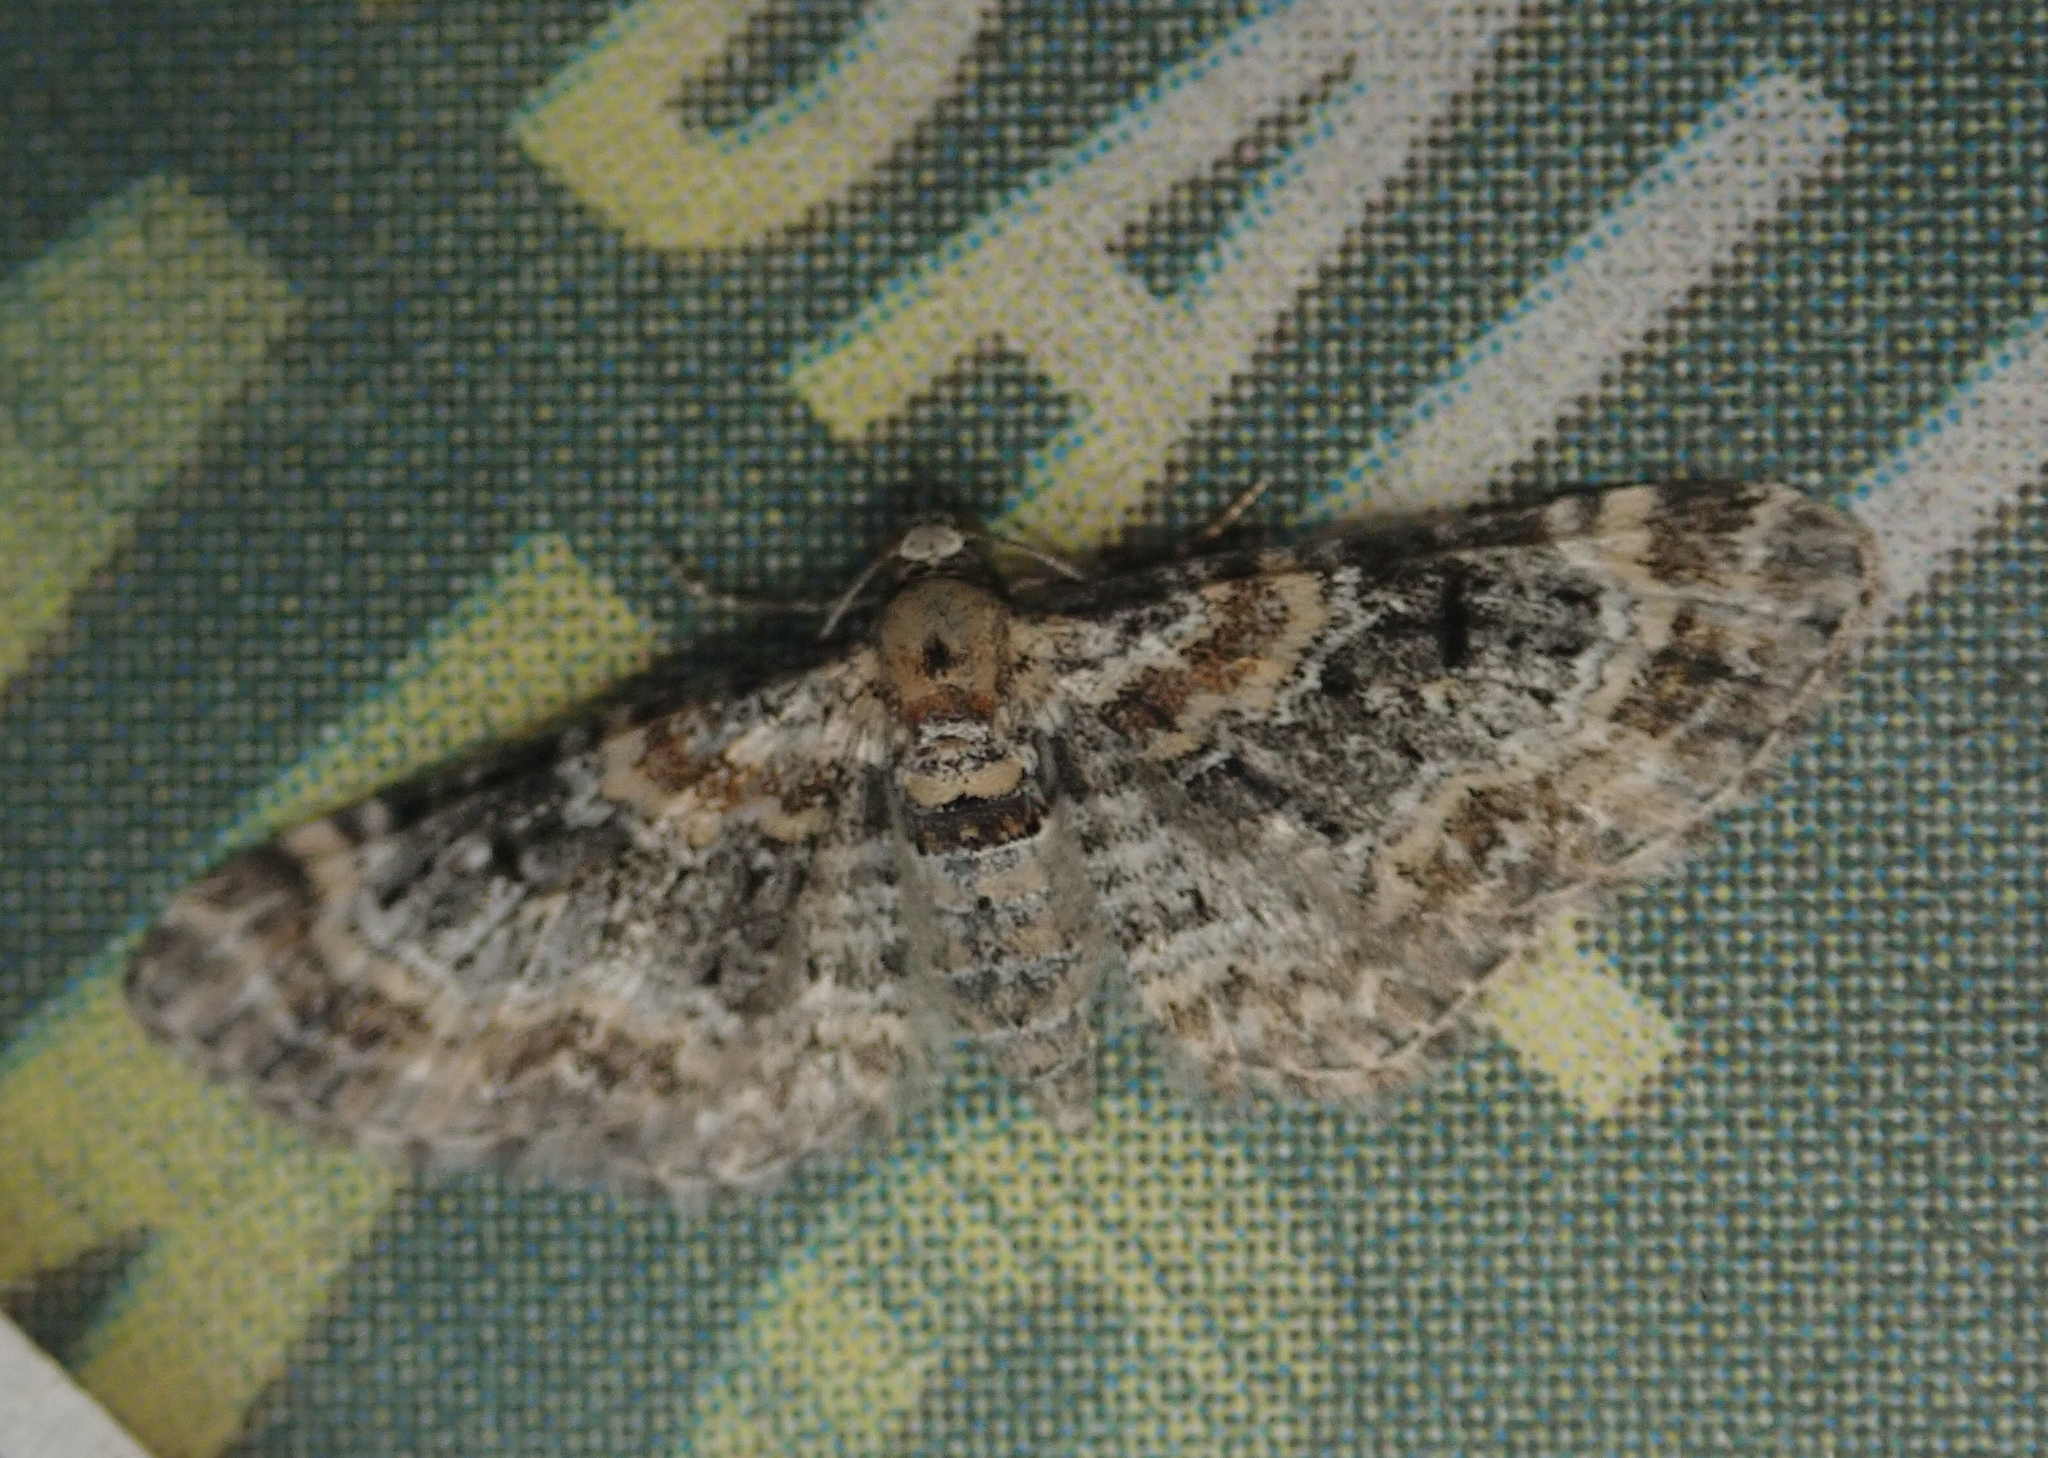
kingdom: Animalia
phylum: Arthropoda
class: Insecta
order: Lepidoptera
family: Geometridae
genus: Eupithecia
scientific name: Eupithecia pulchellata
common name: Foxglove pug
